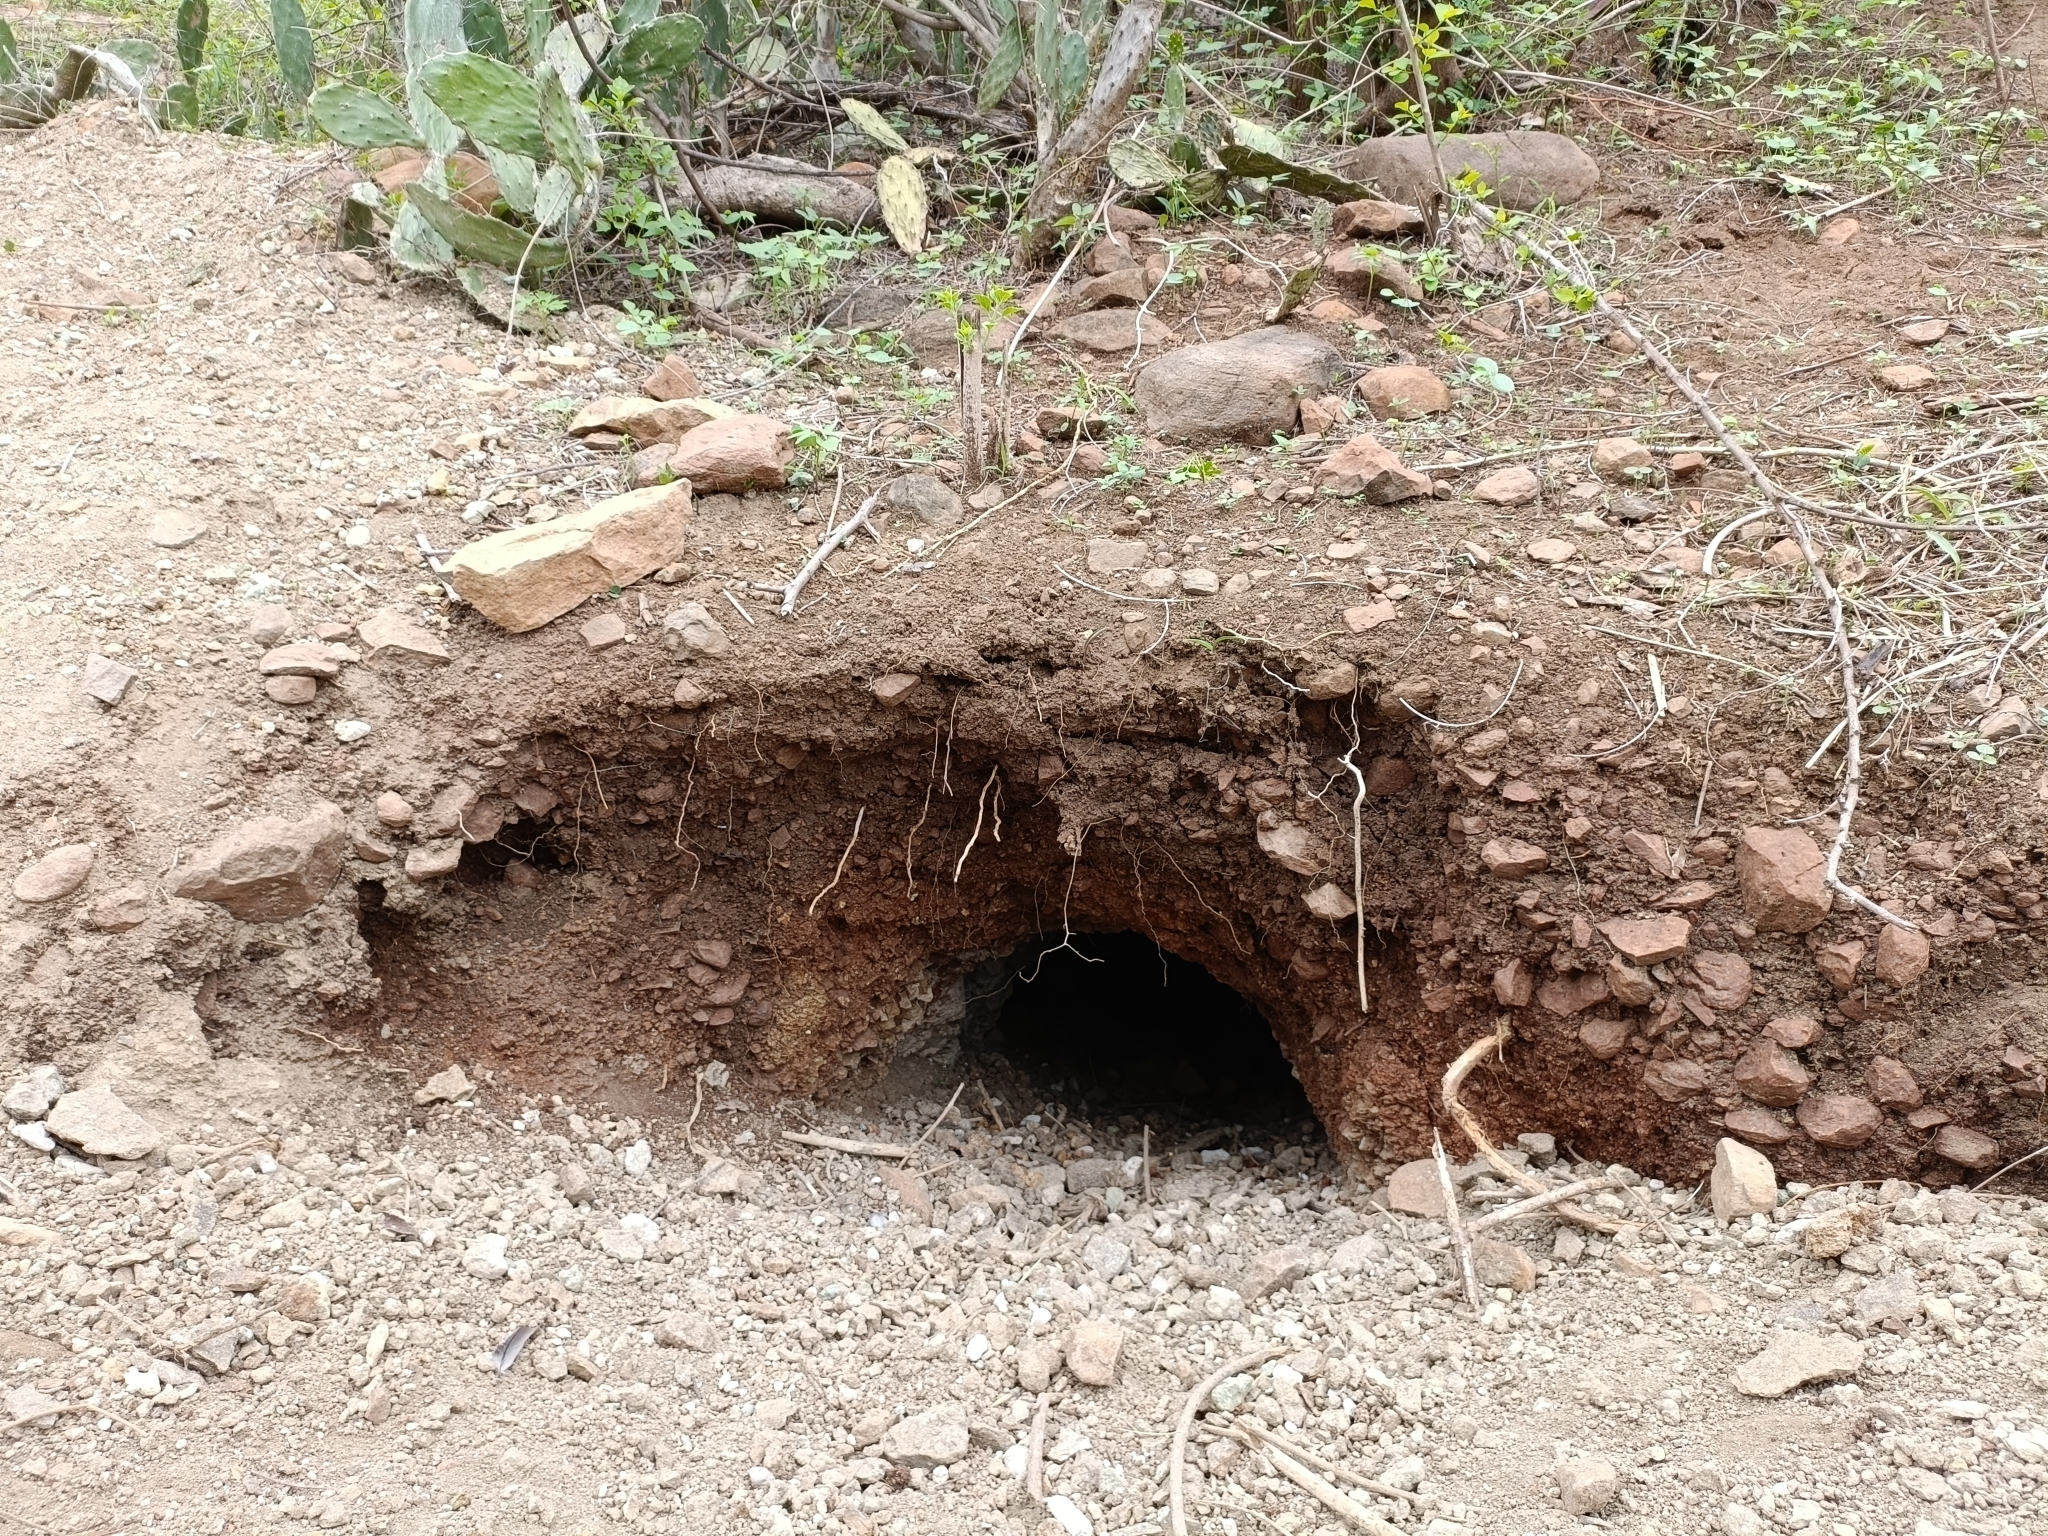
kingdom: Animalia
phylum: Chordata
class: Mammalia
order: Rodentia
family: Hystricidae
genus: Hystrix
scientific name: Hystrix indica
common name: Indian crested porcupine
